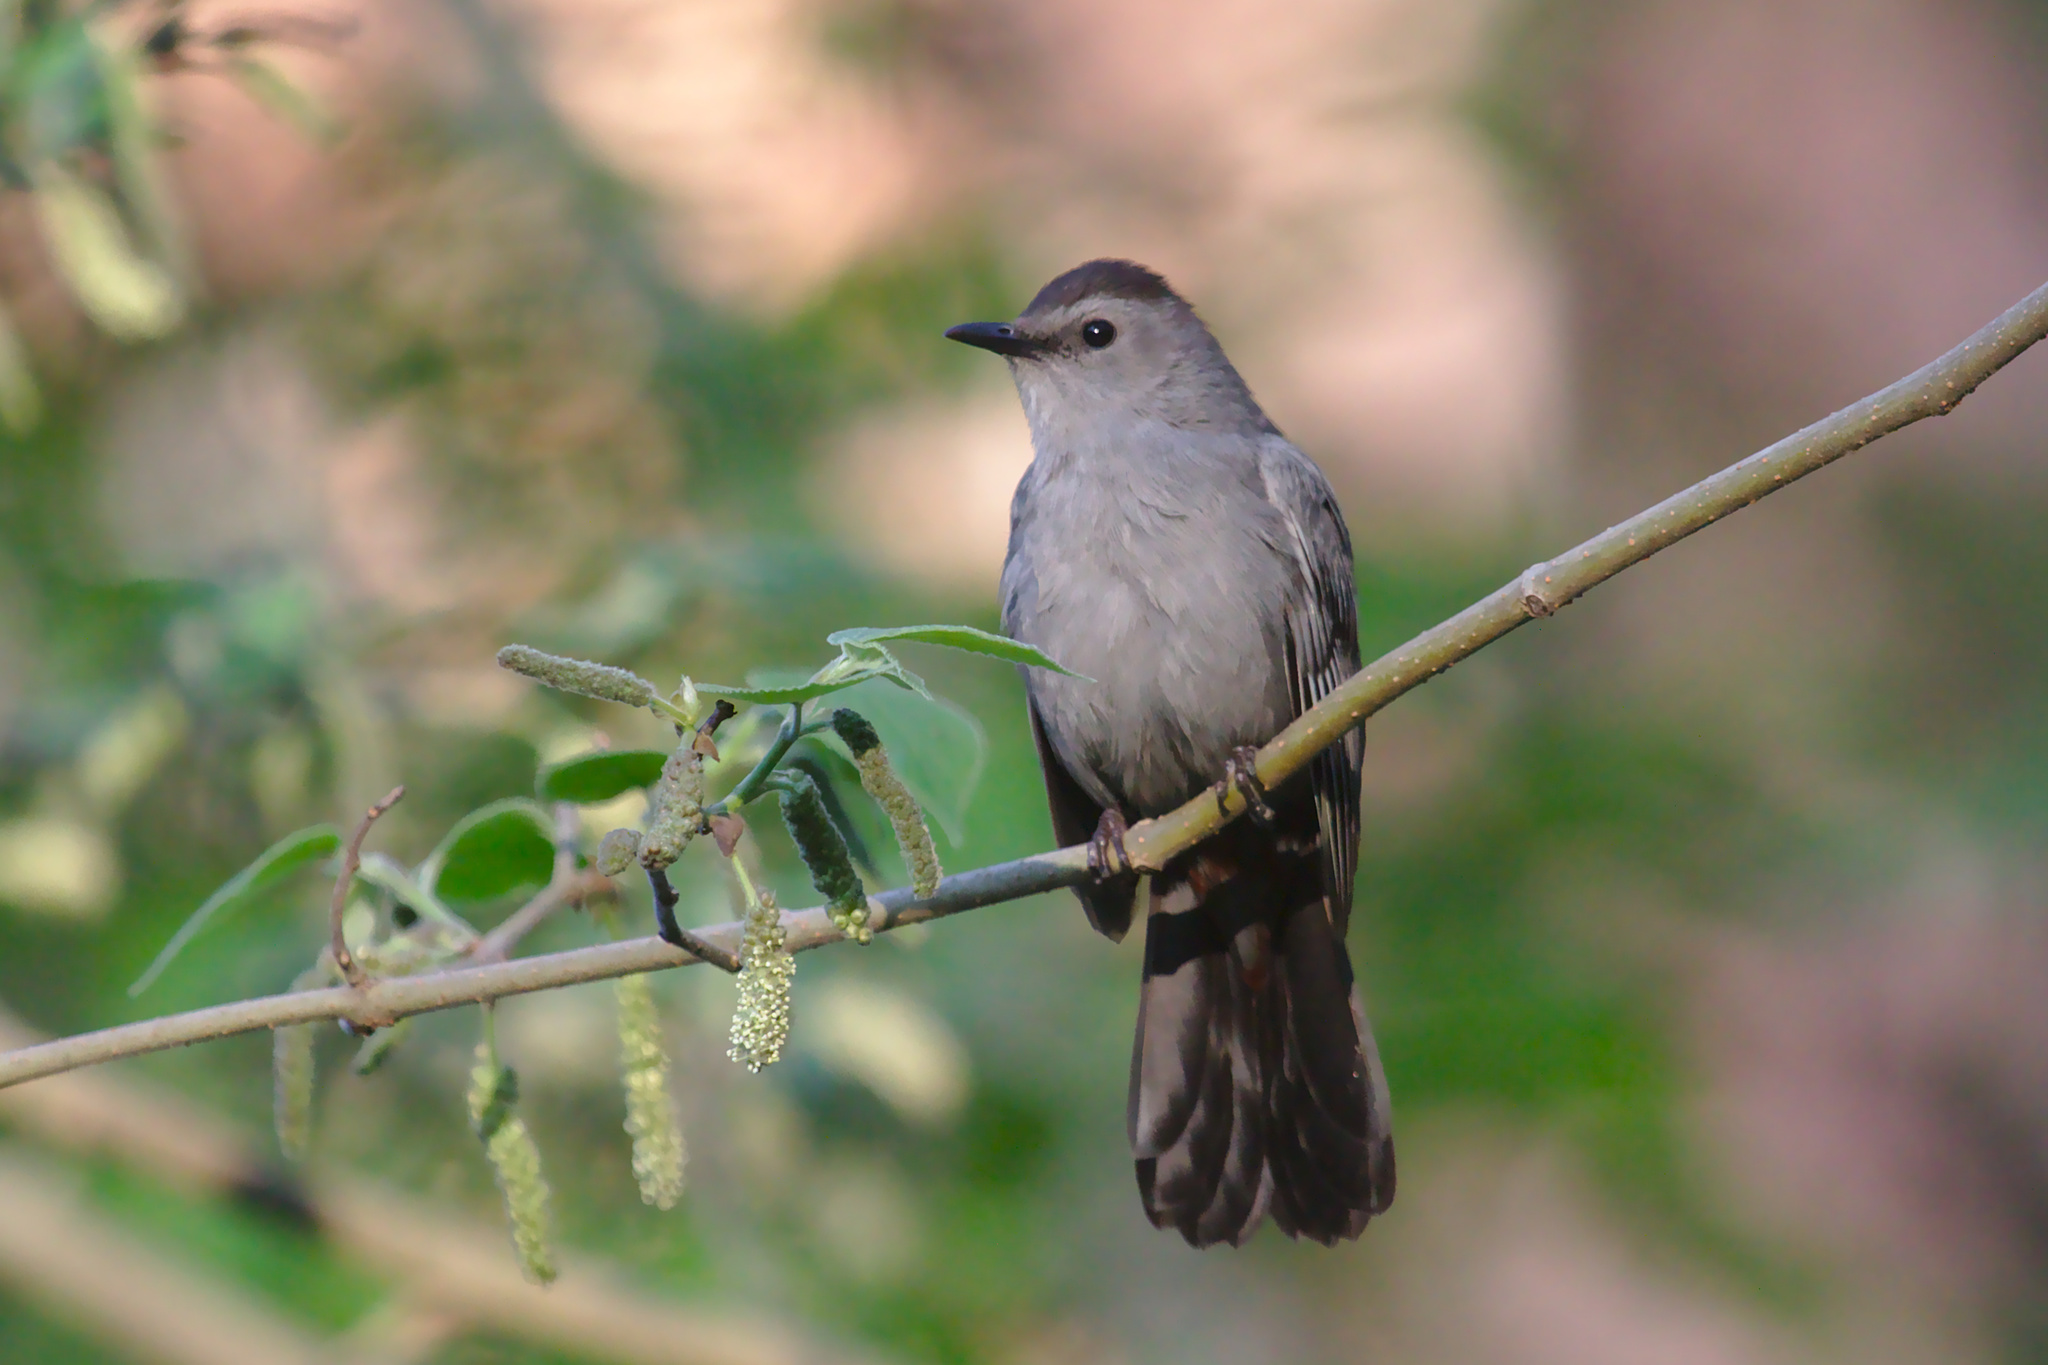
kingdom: Animalia
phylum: Chordata
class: Aves
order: Passeriformes
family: Mimidae
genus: Dumetella
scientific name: Dumetella carolinensis
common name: Gray catbird
